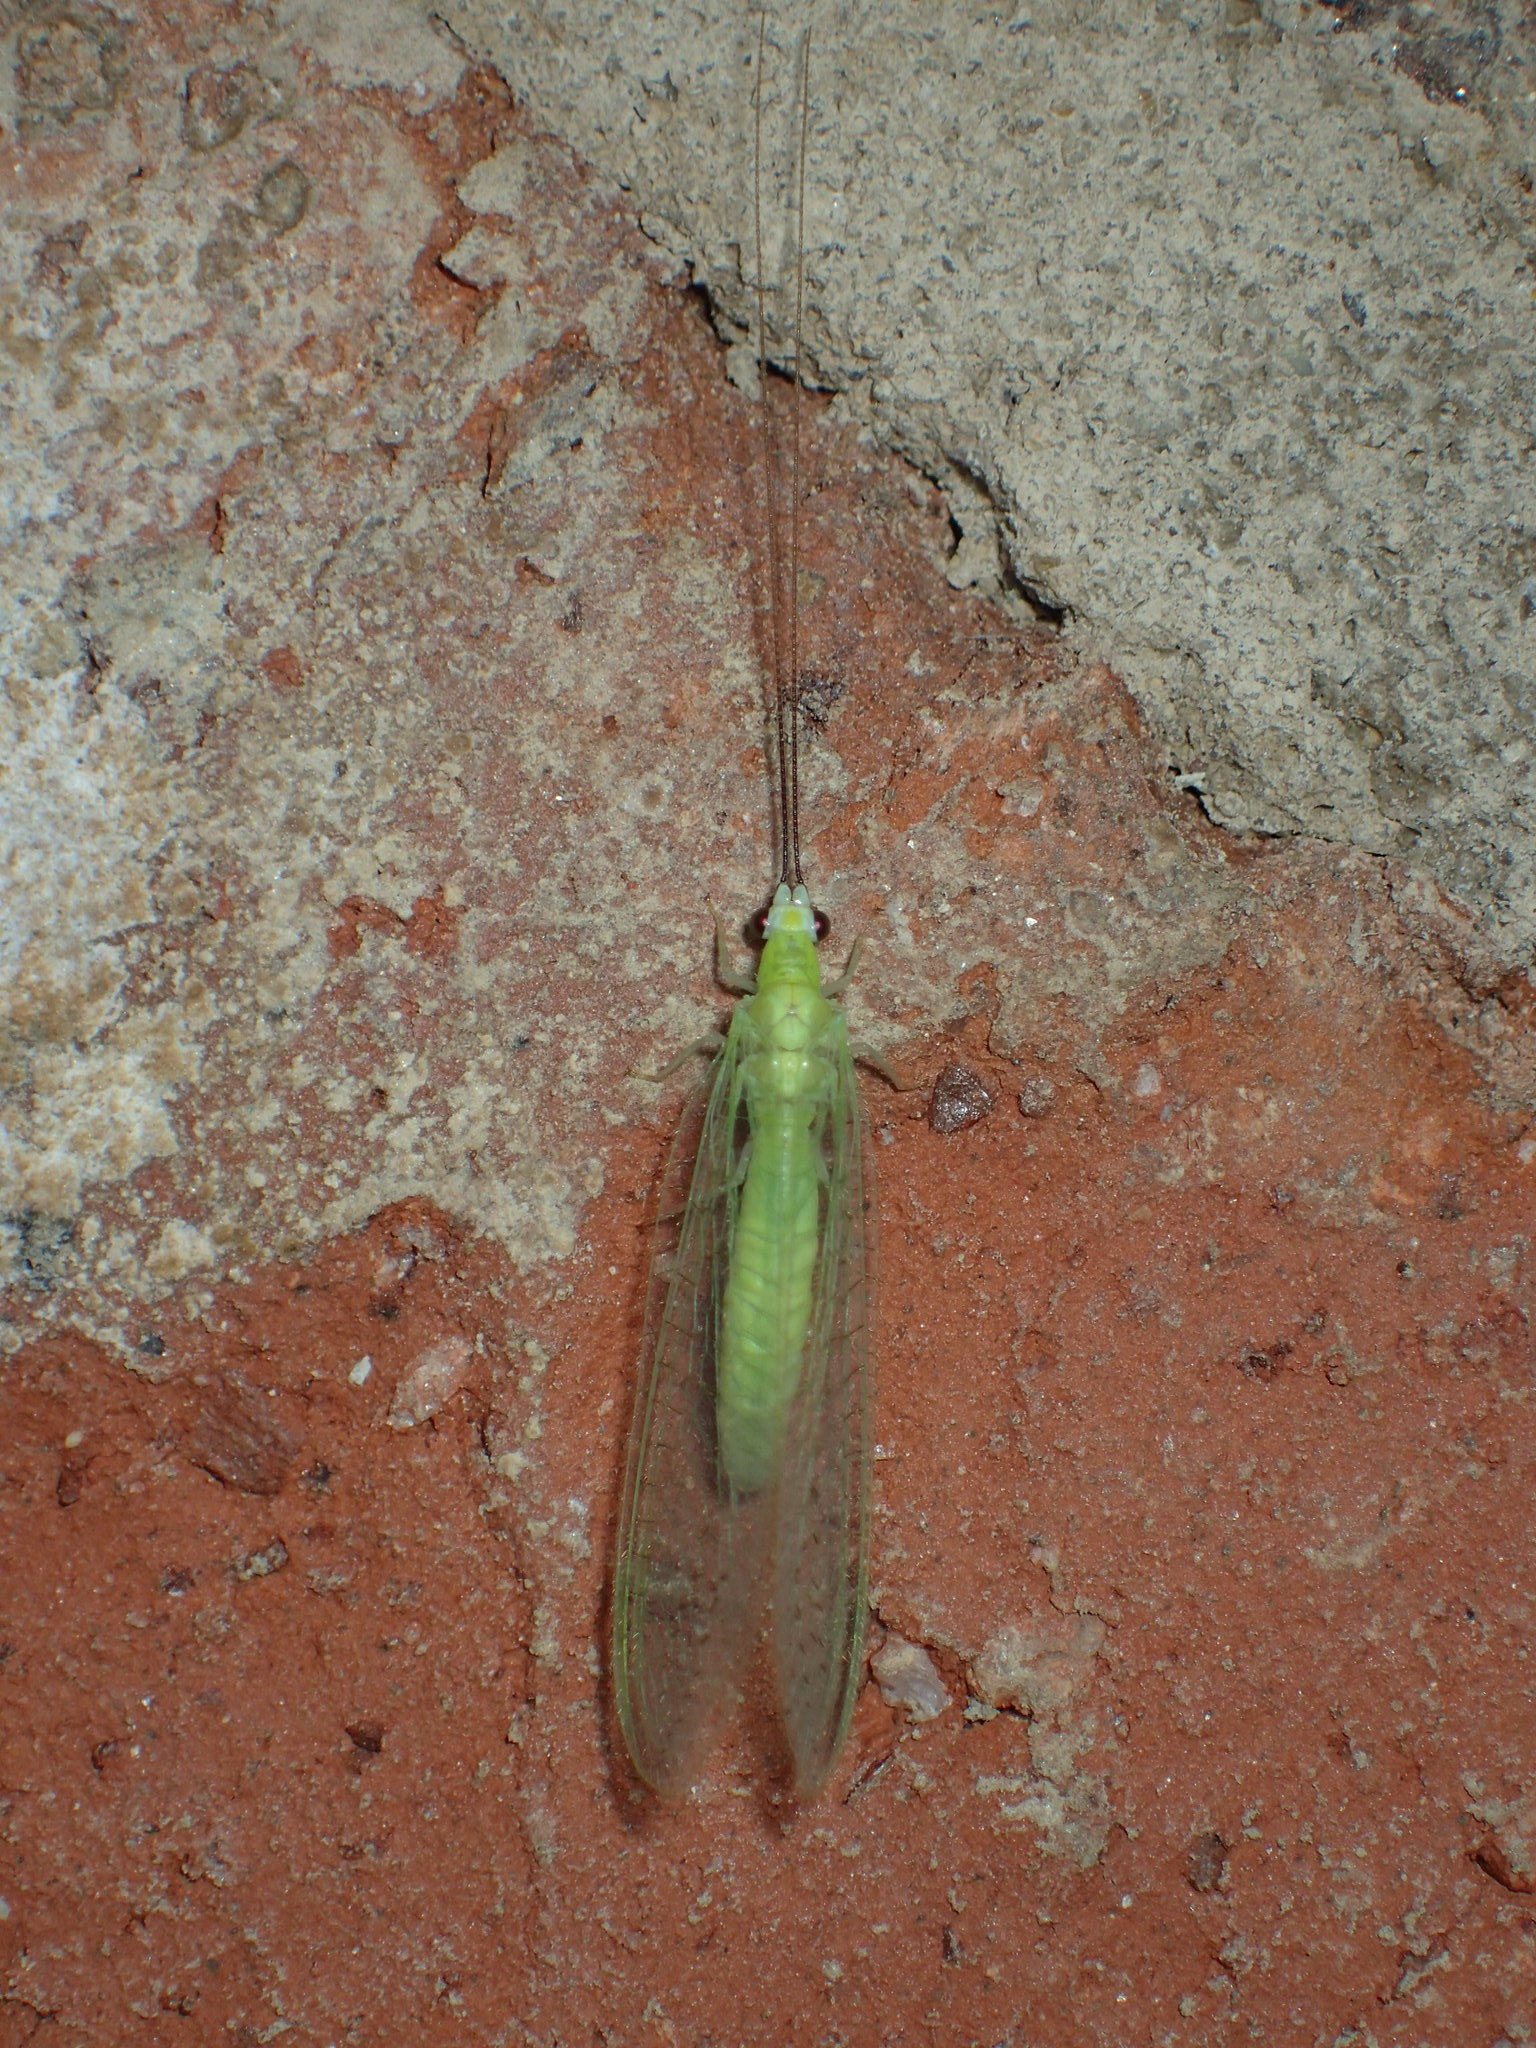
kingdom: Animalia
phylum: Arthropoda
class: Insecta
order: Neuroptera
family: Chrysopidae
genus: Chrysopa
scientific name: Chrysopa nigricornis
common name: Black-horned green lacewing
